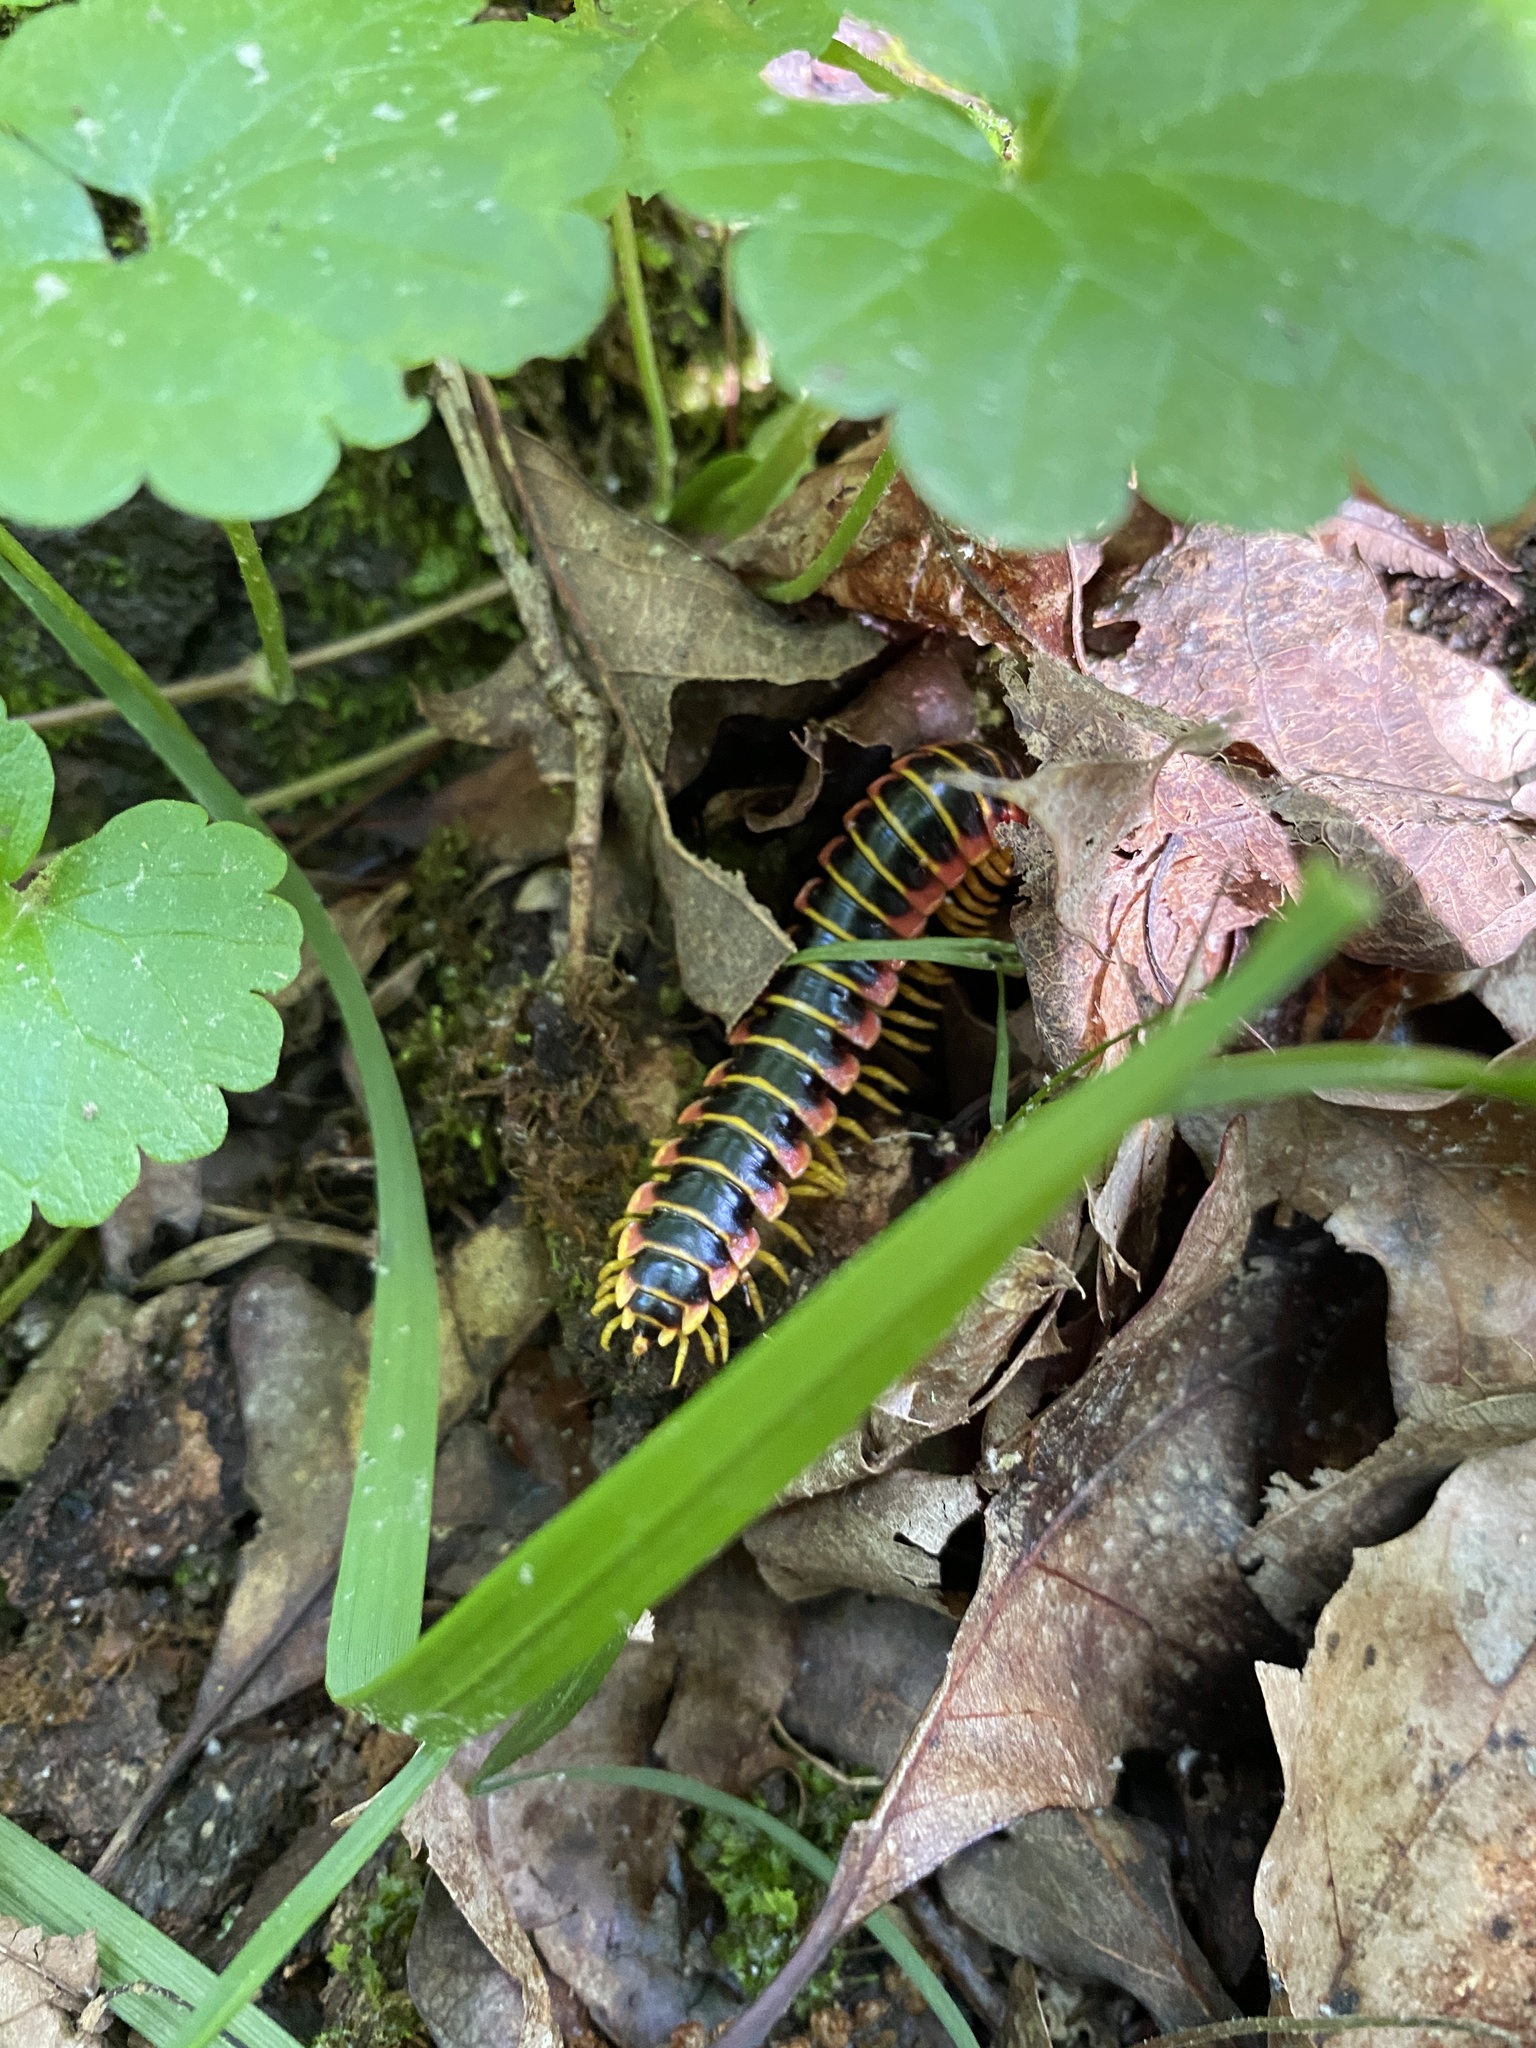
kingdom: Animalia
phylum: Arthropoda
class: Diplopoda
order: Polydesmida
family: Xystodesmidae
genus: Apheloria
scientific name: Apheloria virginiensis
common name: Black-and-gold flat millipede
